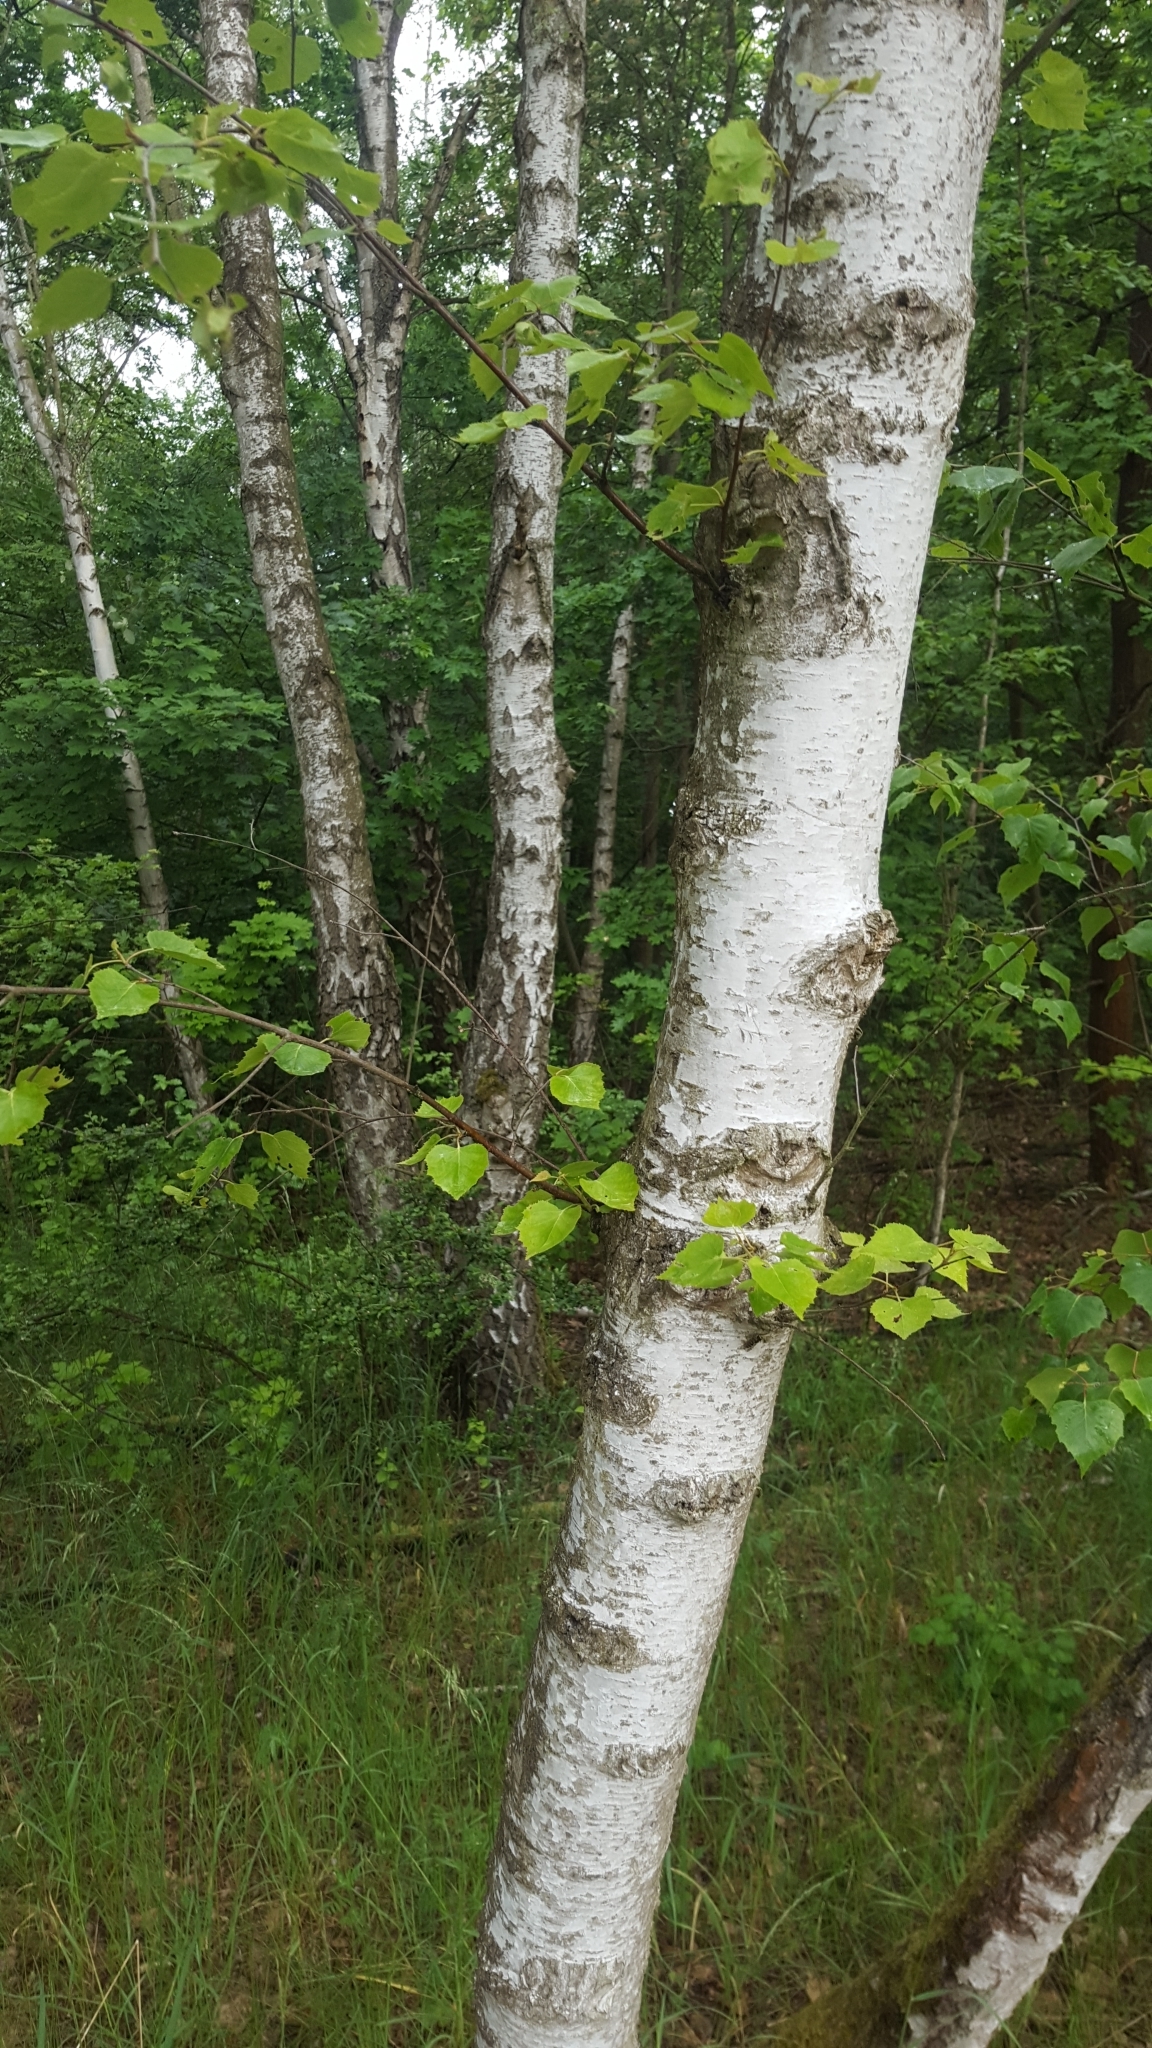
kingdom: Plantae
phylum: Tracheophyta
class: Magnoliopsida
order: Fagales
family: Betulaceae
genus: Betula
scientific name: Betula pendula
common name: Silver birch
